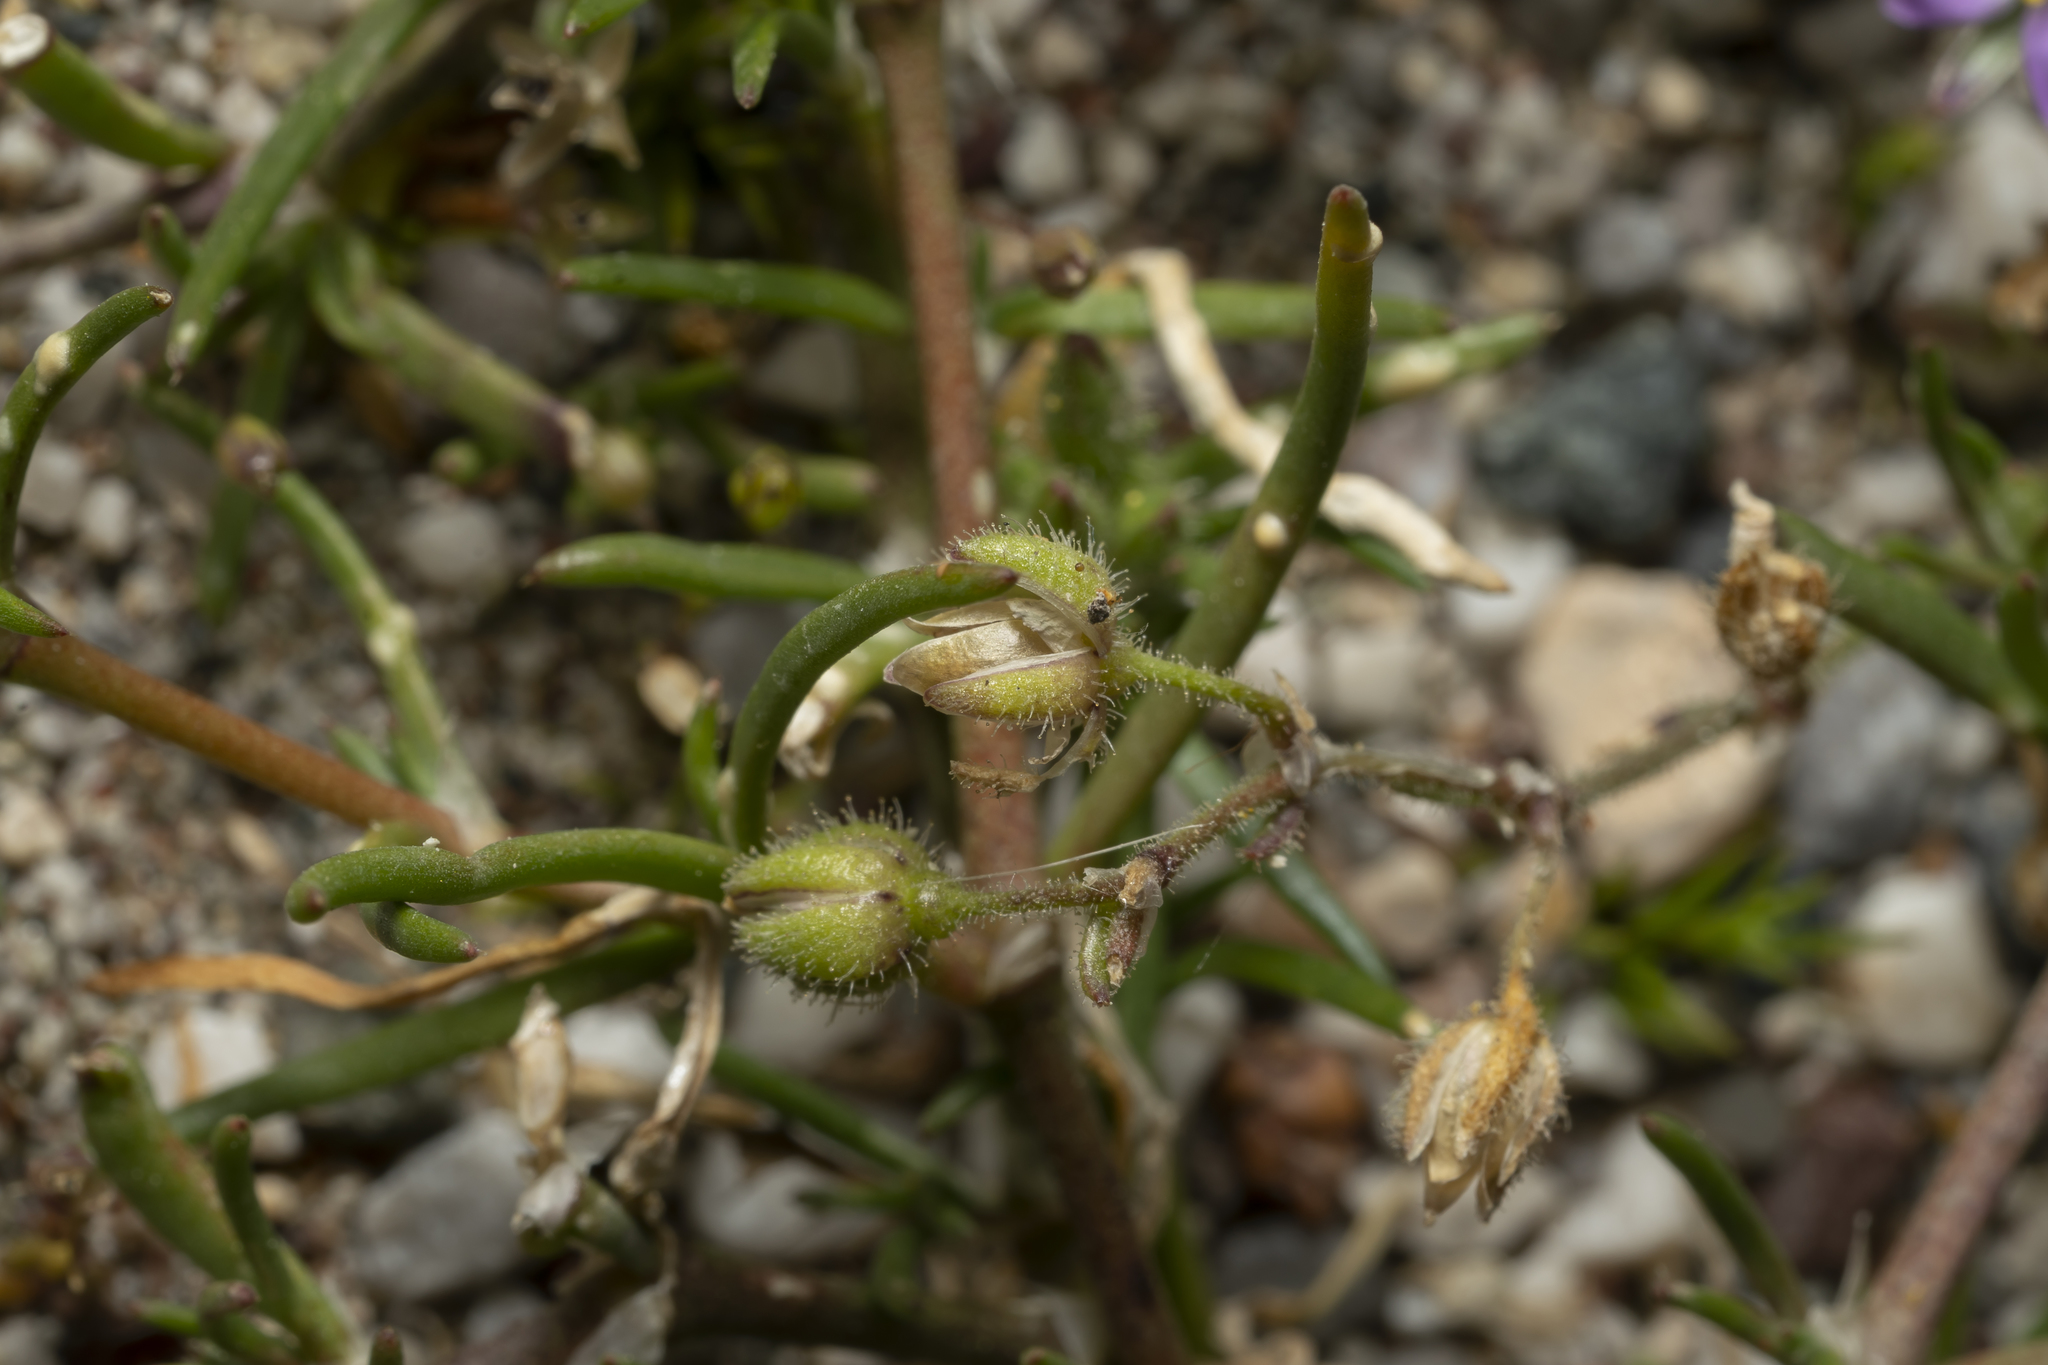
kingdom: Plantae
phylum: Tracheophyta
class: Magnoliopsida
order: Caryophyllales
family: Caryophyllaceae
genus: Spergularia
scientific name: Spergularia bocconei
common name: Greek sea-spurrey
